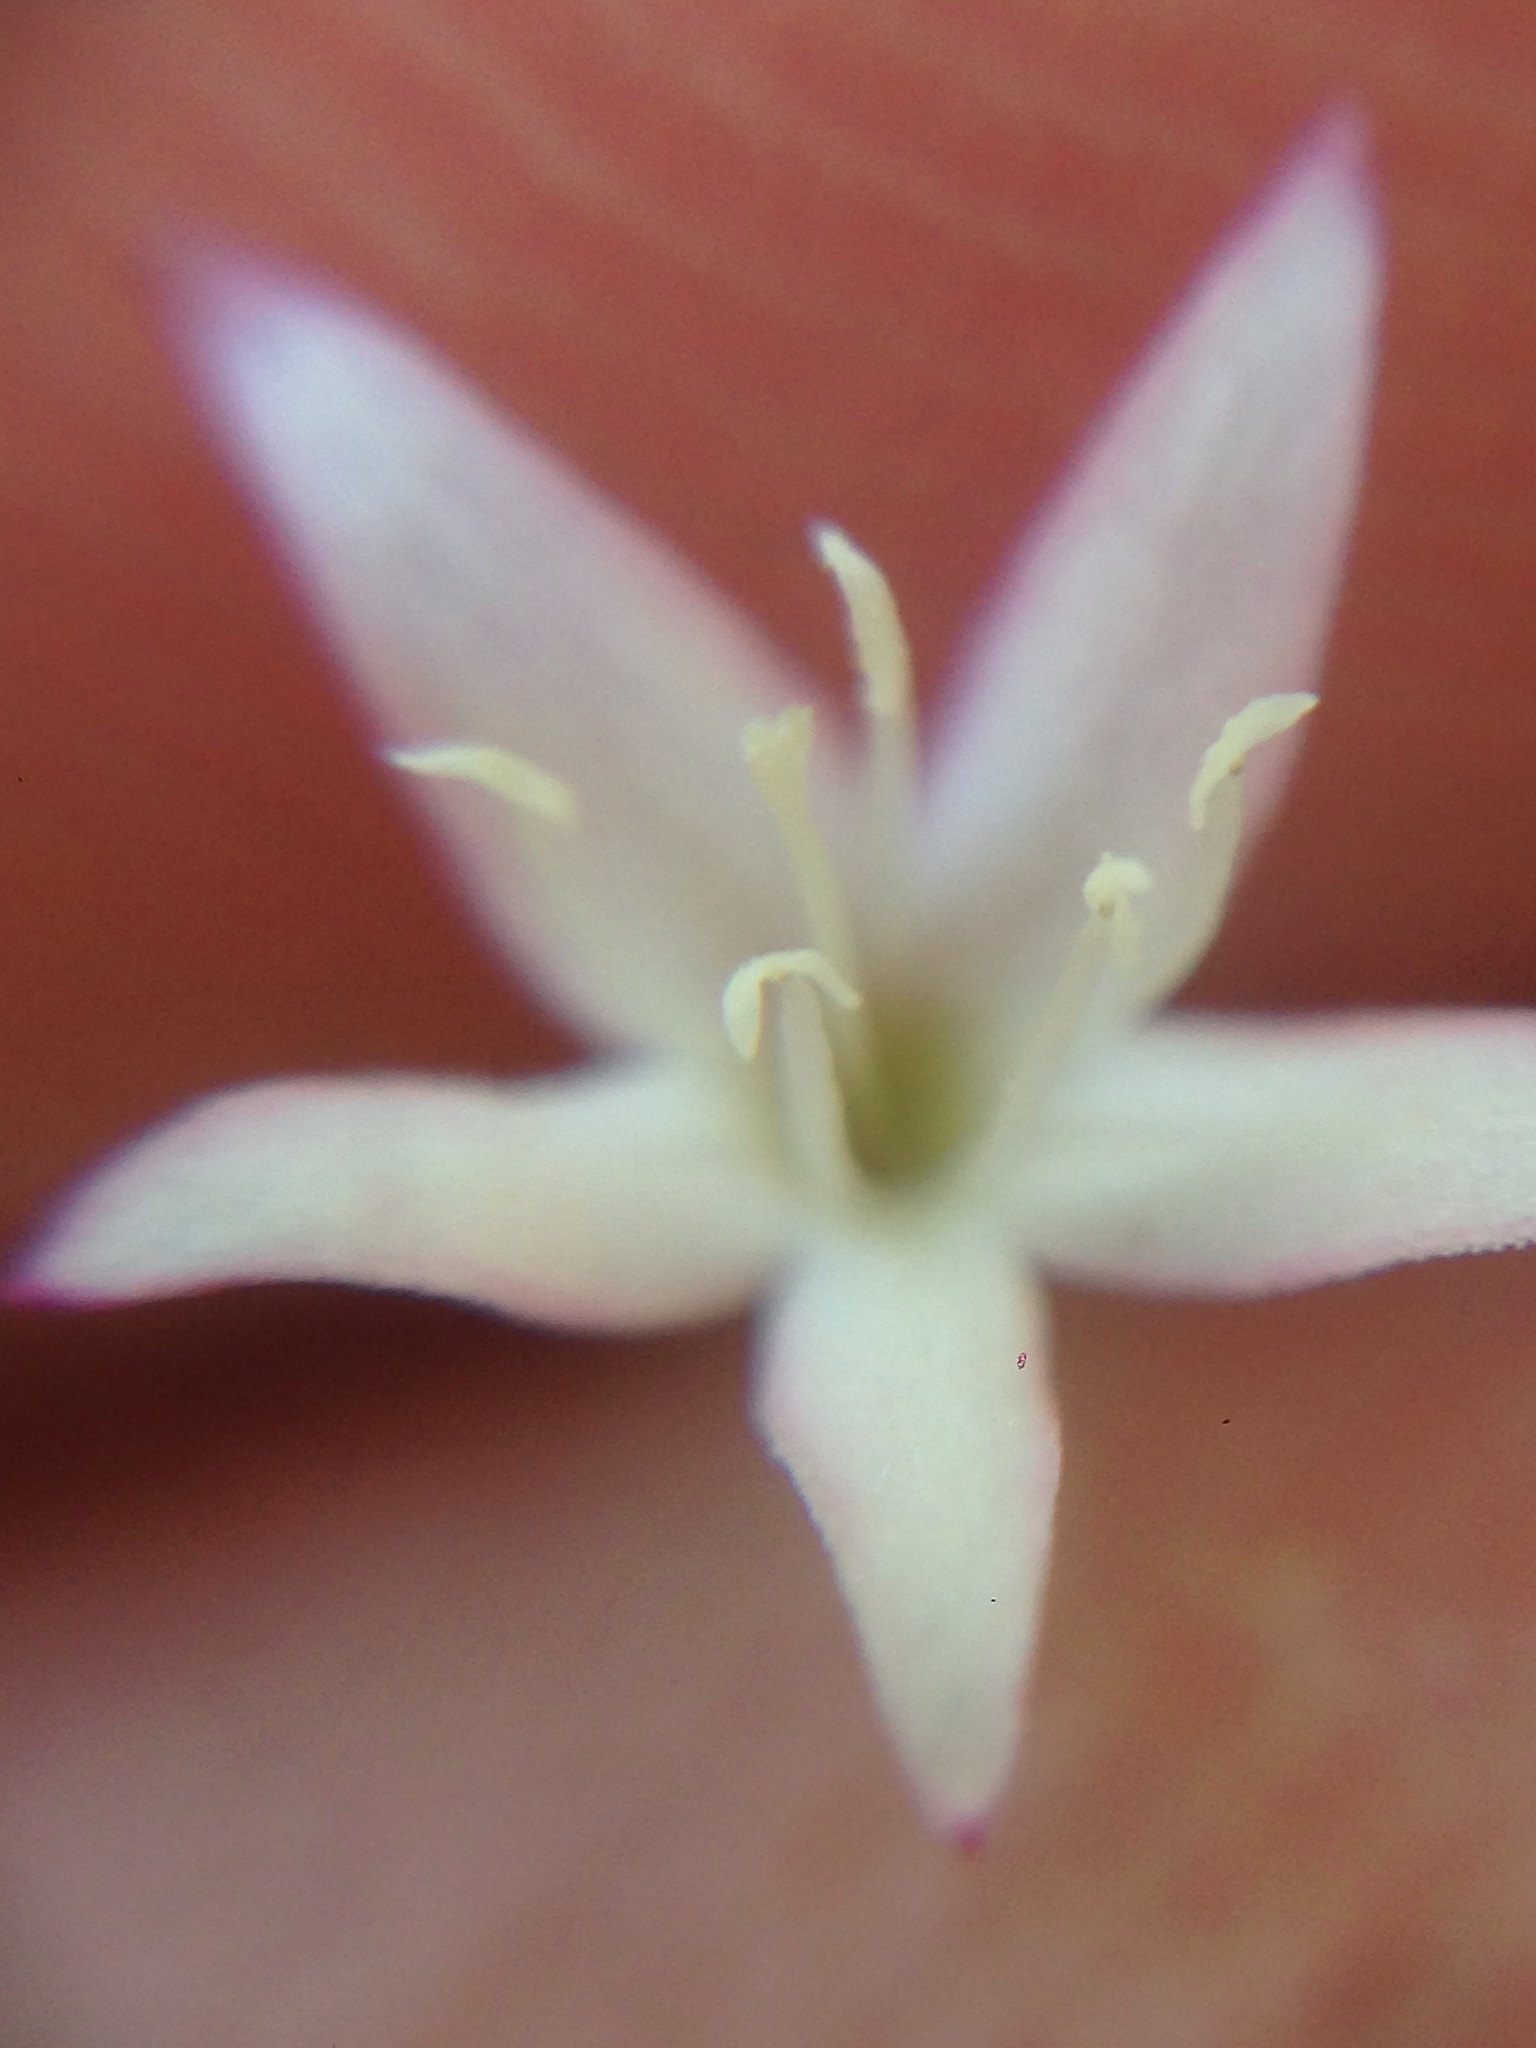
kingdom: Plantae
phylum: Tracheophyta
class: Magnoliopsida
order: Gentianales
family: Rubiaceae
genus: Kelloggia
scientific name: Kelloggia galioides
